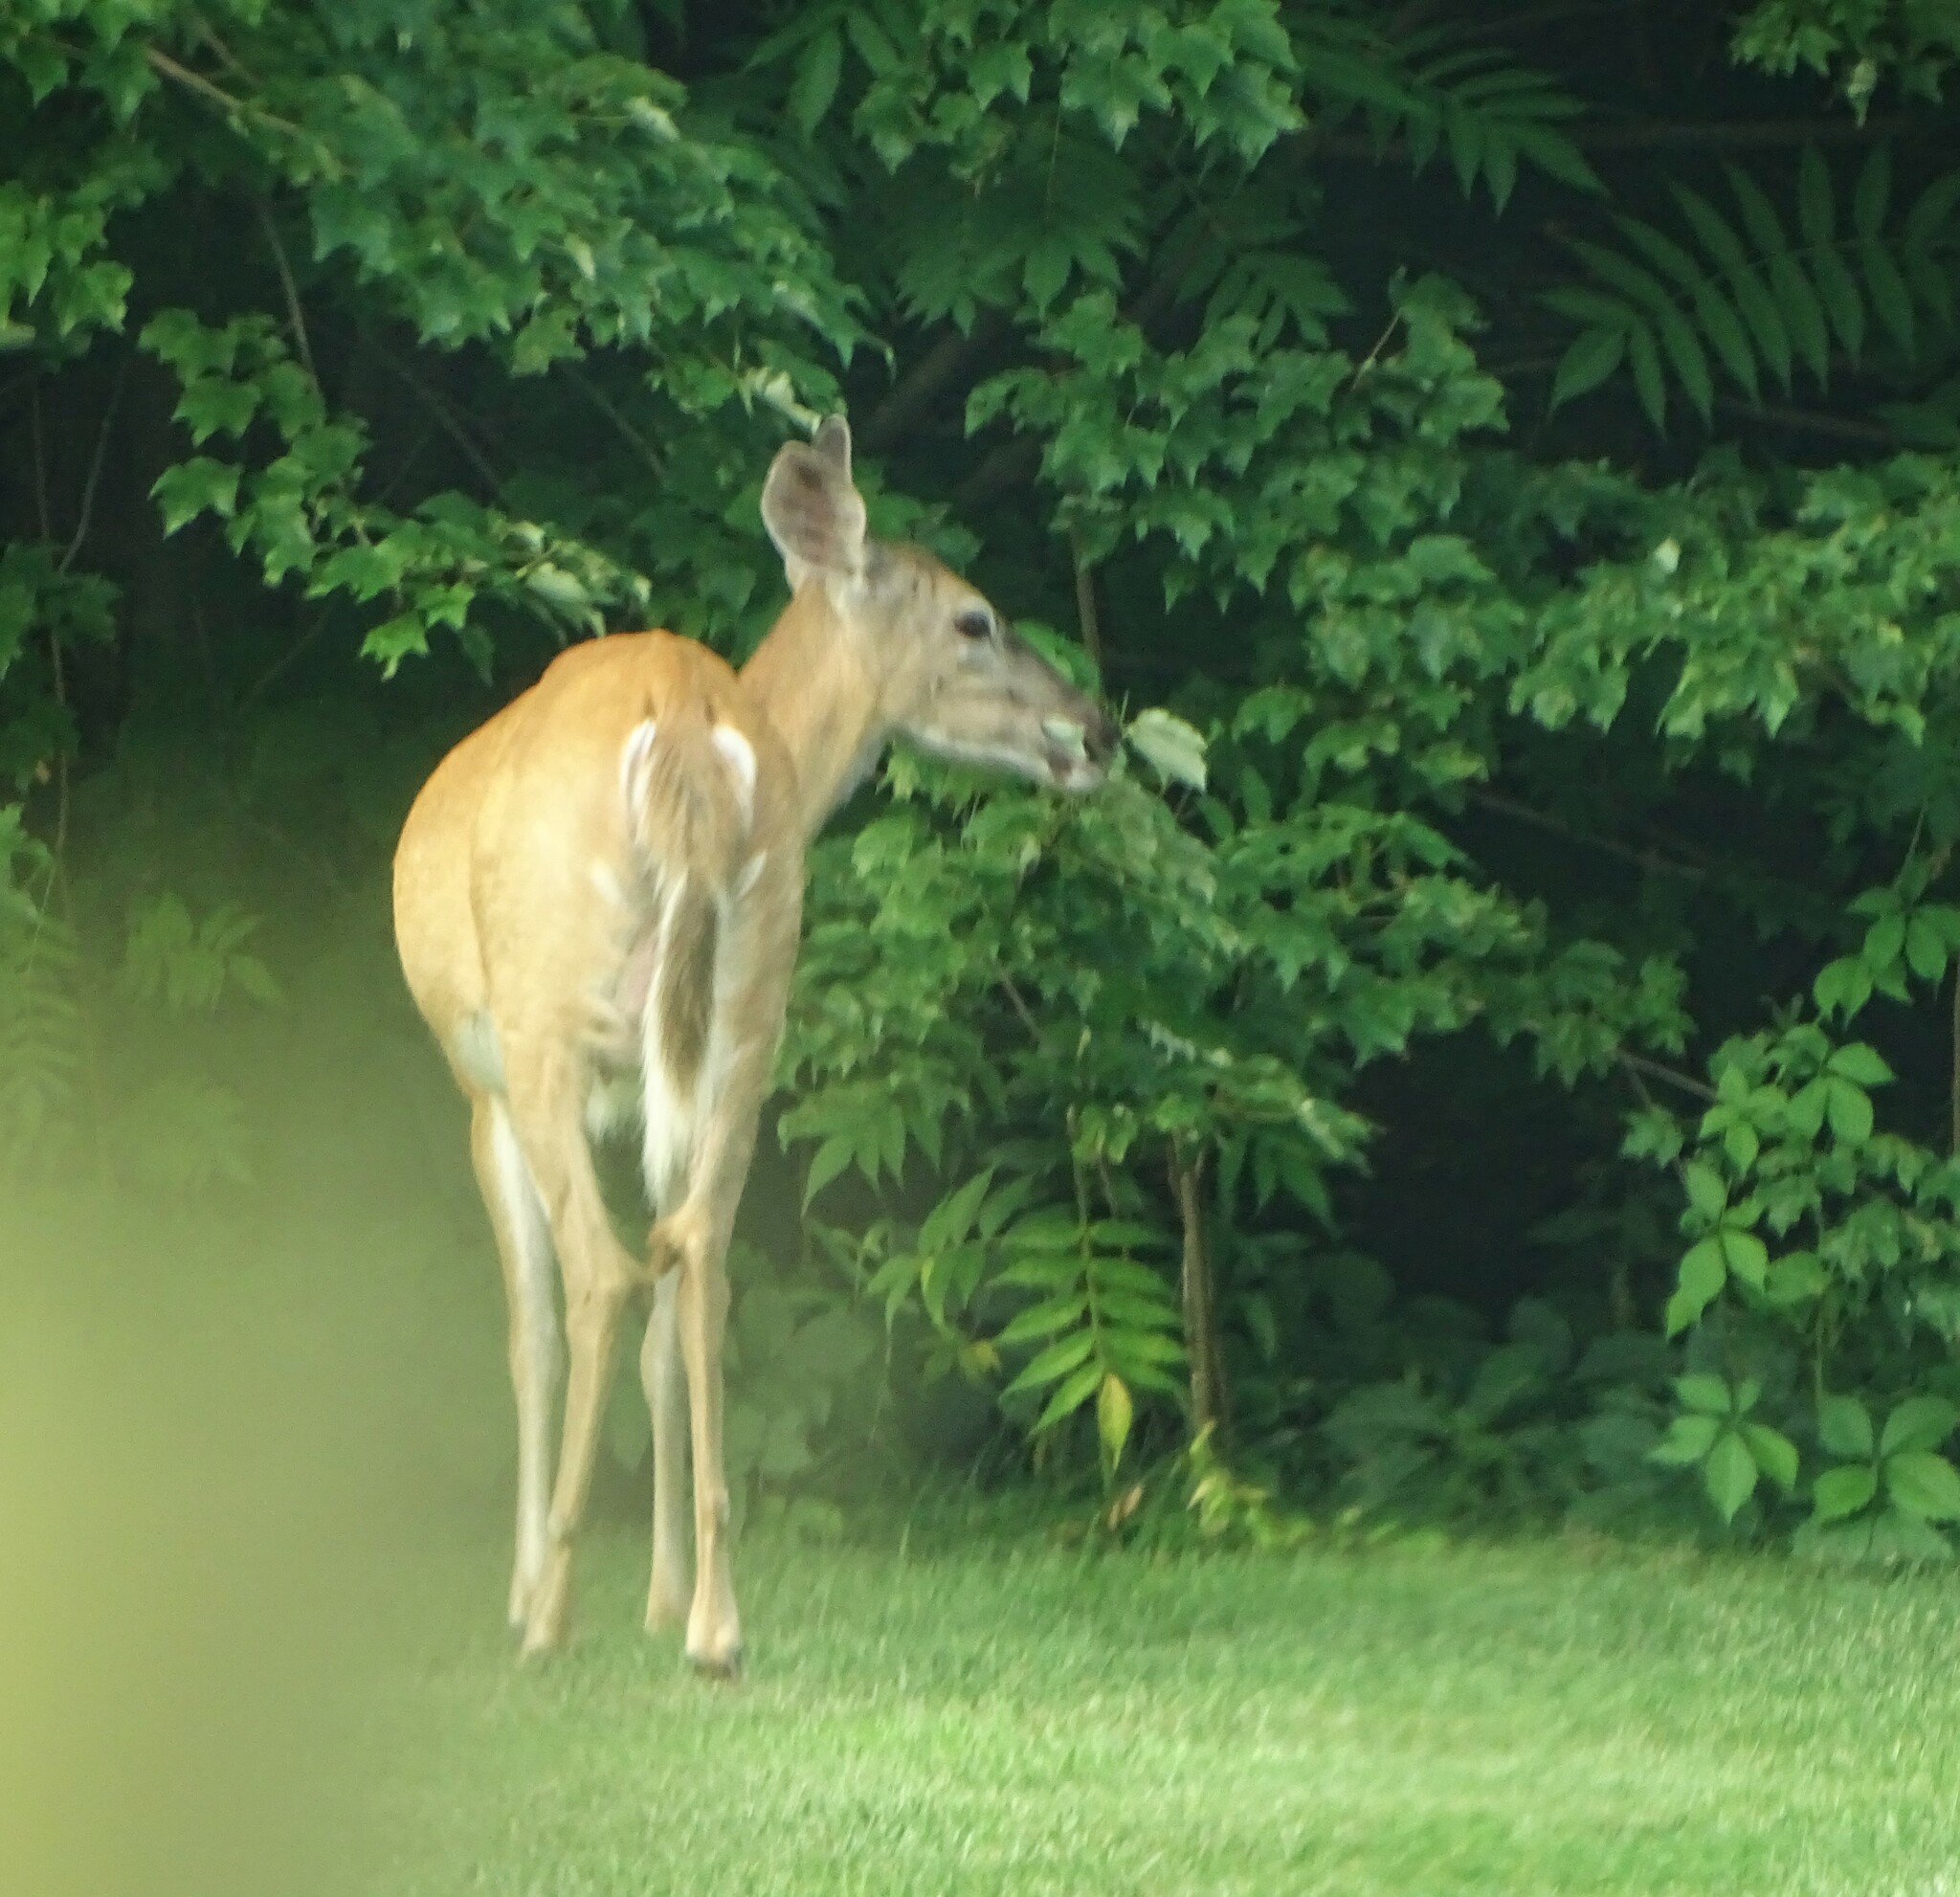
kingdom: Animalia
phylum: Chordata
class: Mammalia
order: Artiodactyla
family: Cervidae
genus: Odocoileus
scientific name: Odocoileus virginianus
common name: White-tailed deer
